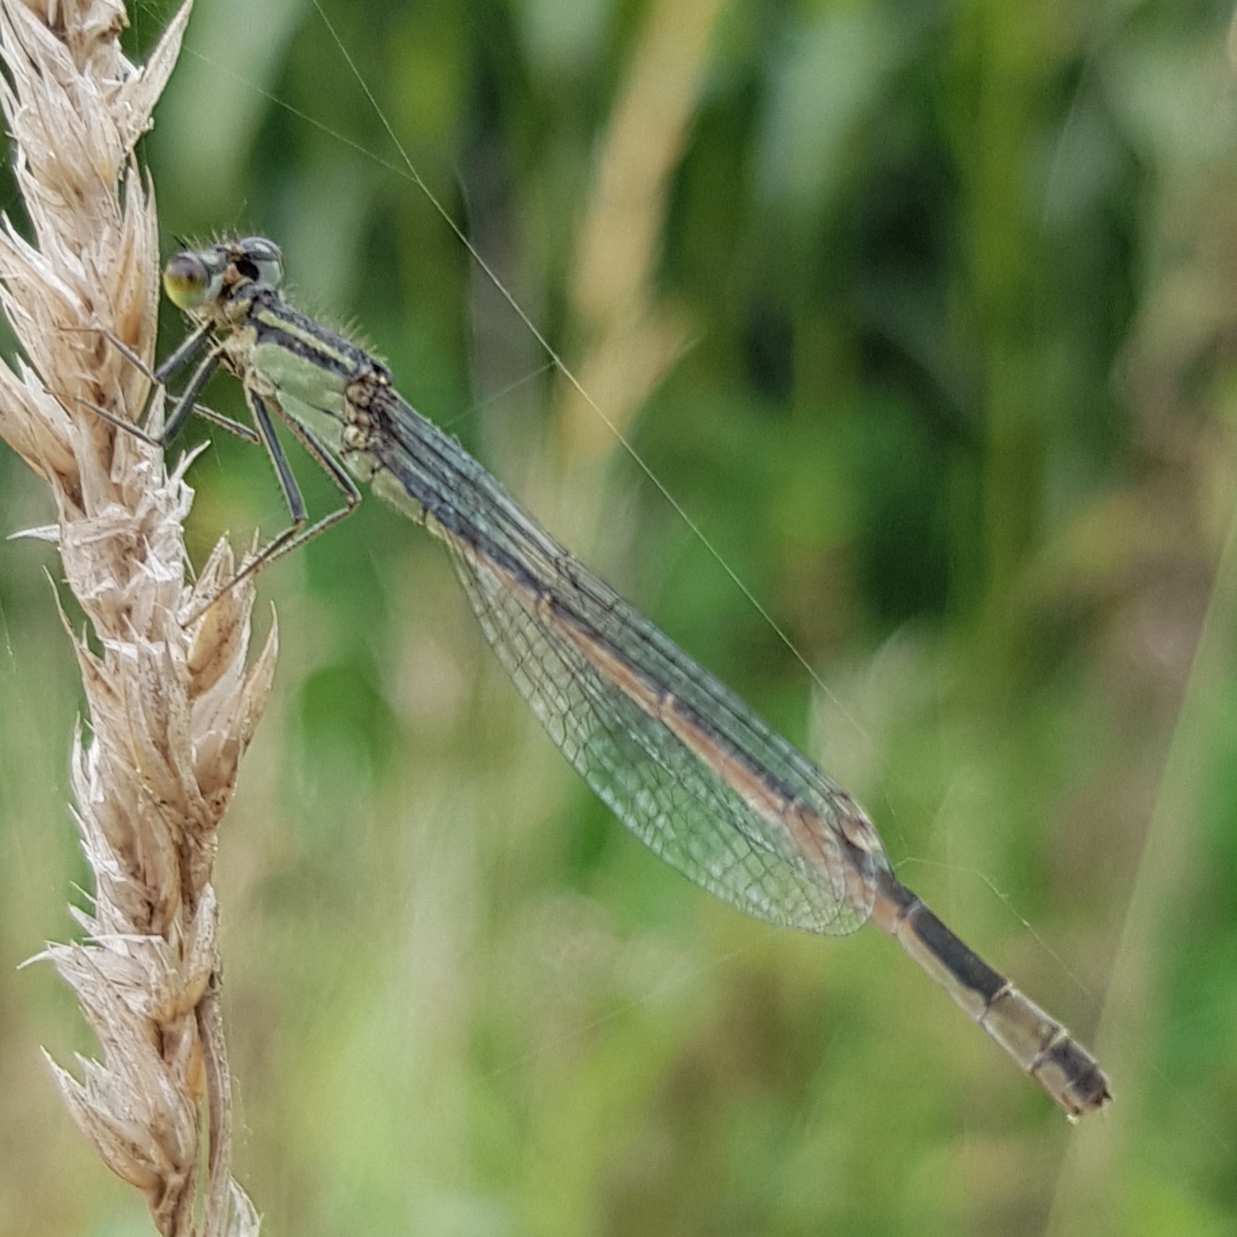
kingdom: Animalia
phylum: Arthropoda
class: Insecta
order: Odonata
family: Coenagrionidae
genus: Ischnura
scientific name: Ischnura elegans
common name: Blue-tailed damselfly
